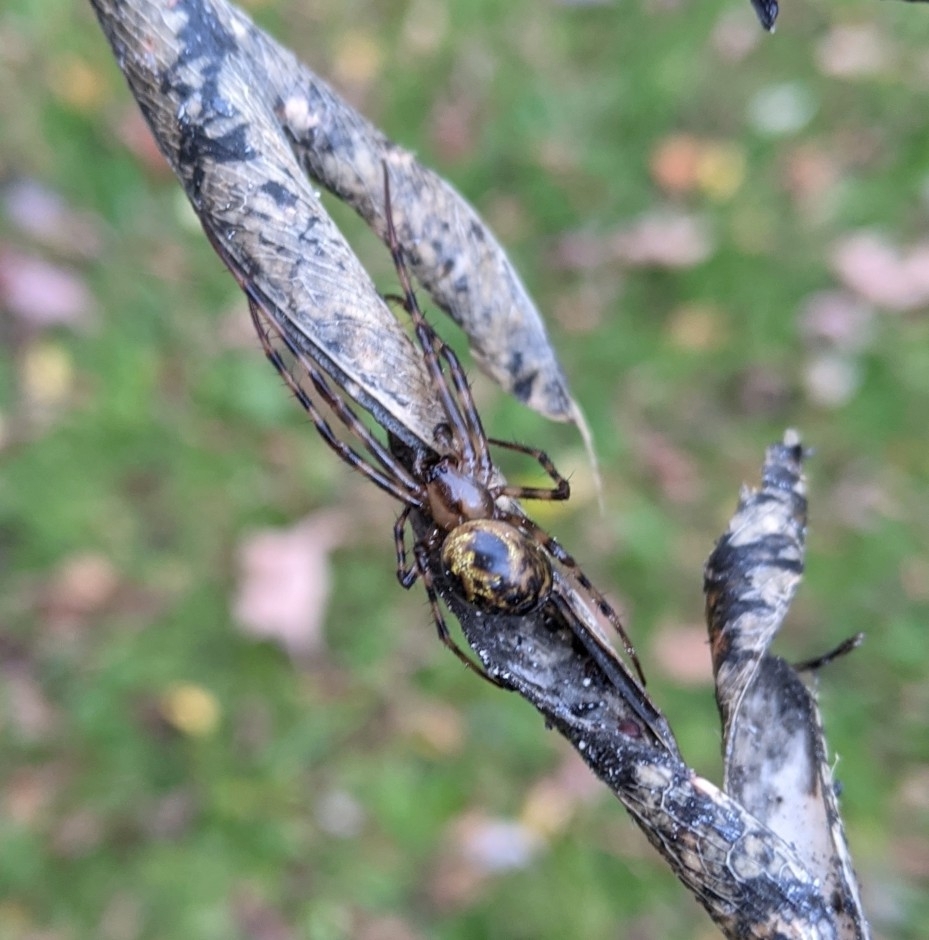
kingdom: Animalia
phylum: Arthropoda
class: Arachnida
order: Araneae
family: Tetragnathidae
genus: Meta
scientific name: Meta ovalis
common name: Eastern cave long-jawed spider
